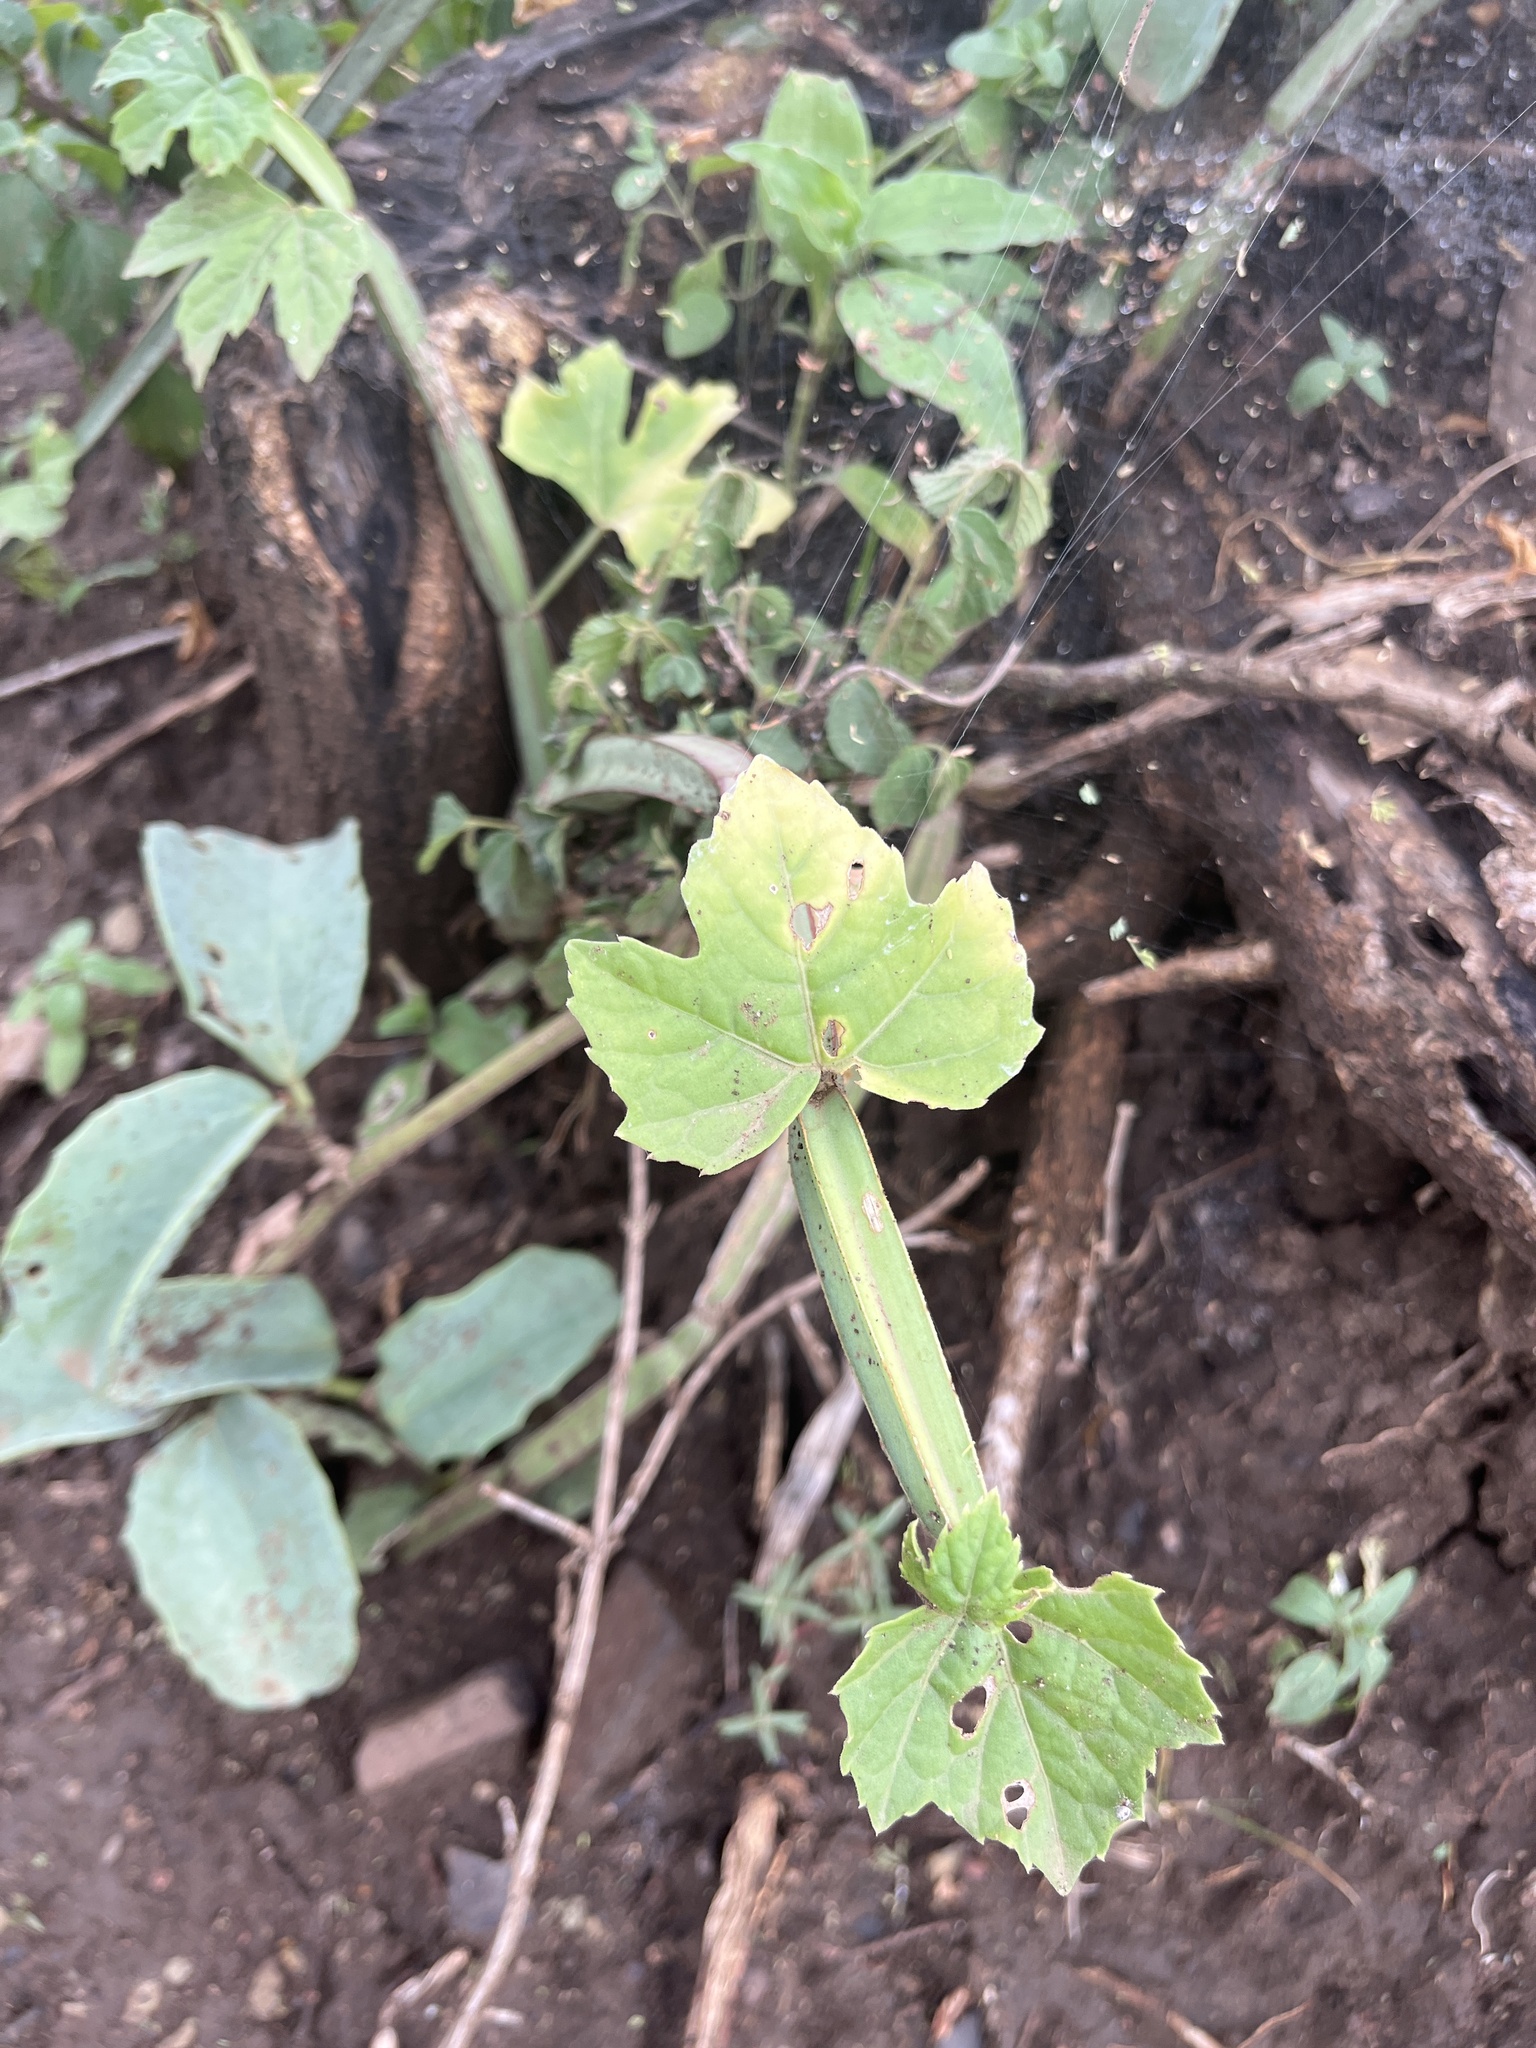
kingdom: Plantae
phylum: Tracheophyta
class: Magnoliopsida
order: Vitales
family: Vitaceae
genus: Cissus
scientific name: Cissus quadrangularis
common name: Veldt-grape
